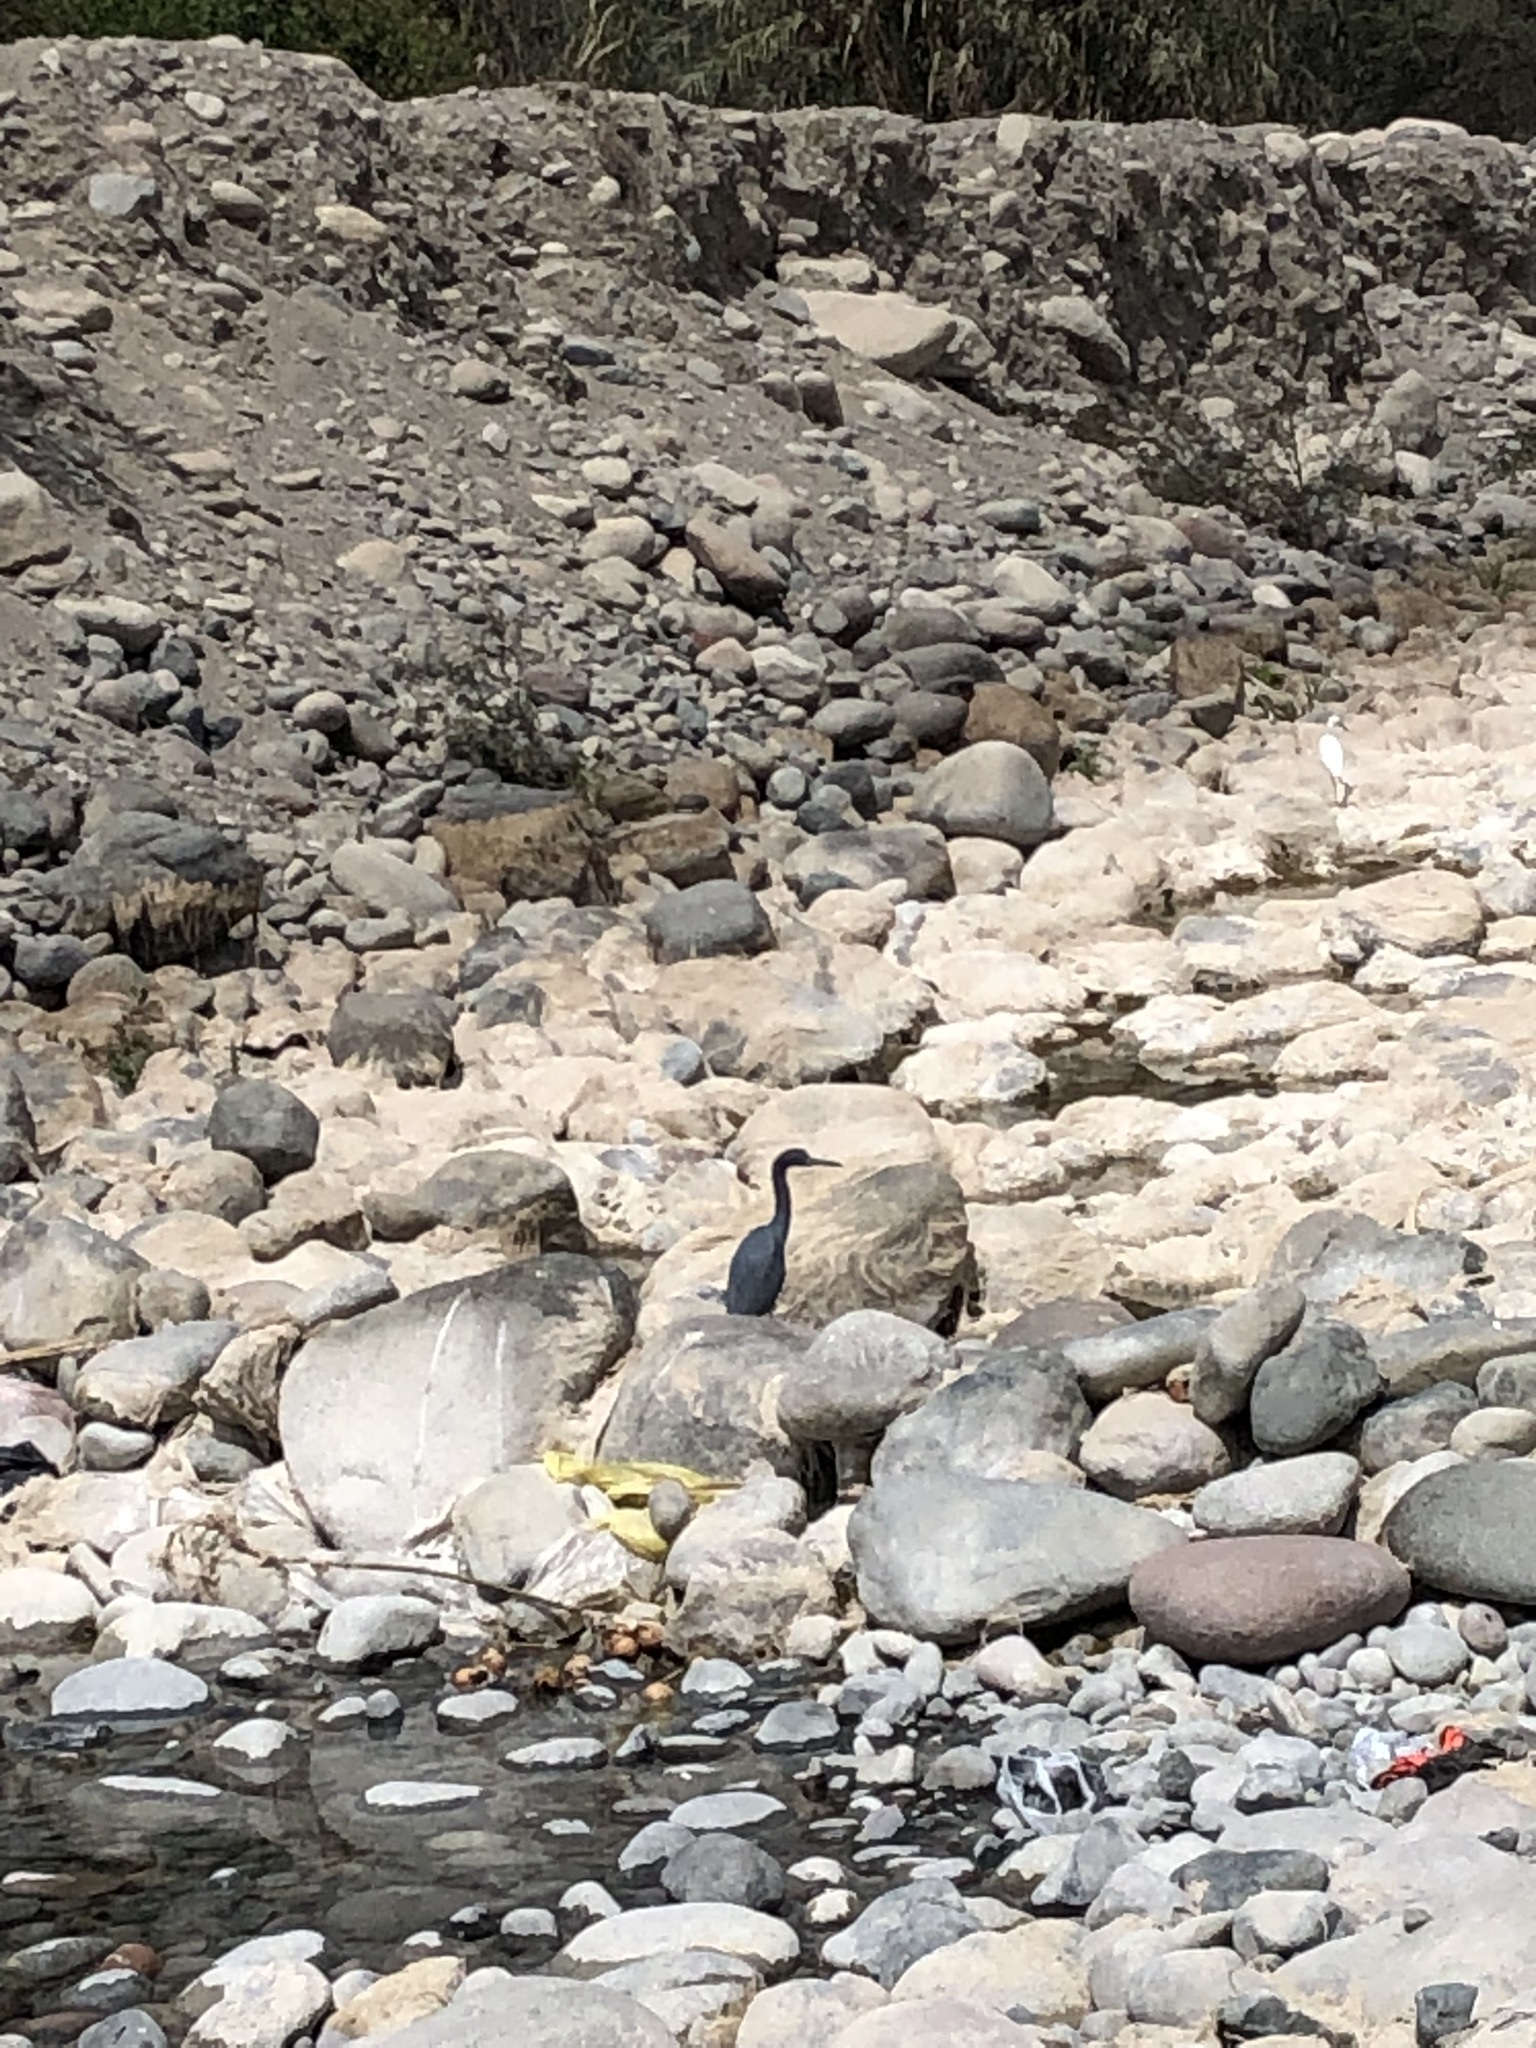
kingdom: Animalia
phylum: Chordata
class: Aves
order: Pelecaniformes
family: Ardeidae
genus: Egretta
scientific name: Egretta caerulea
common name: Little blue heron
